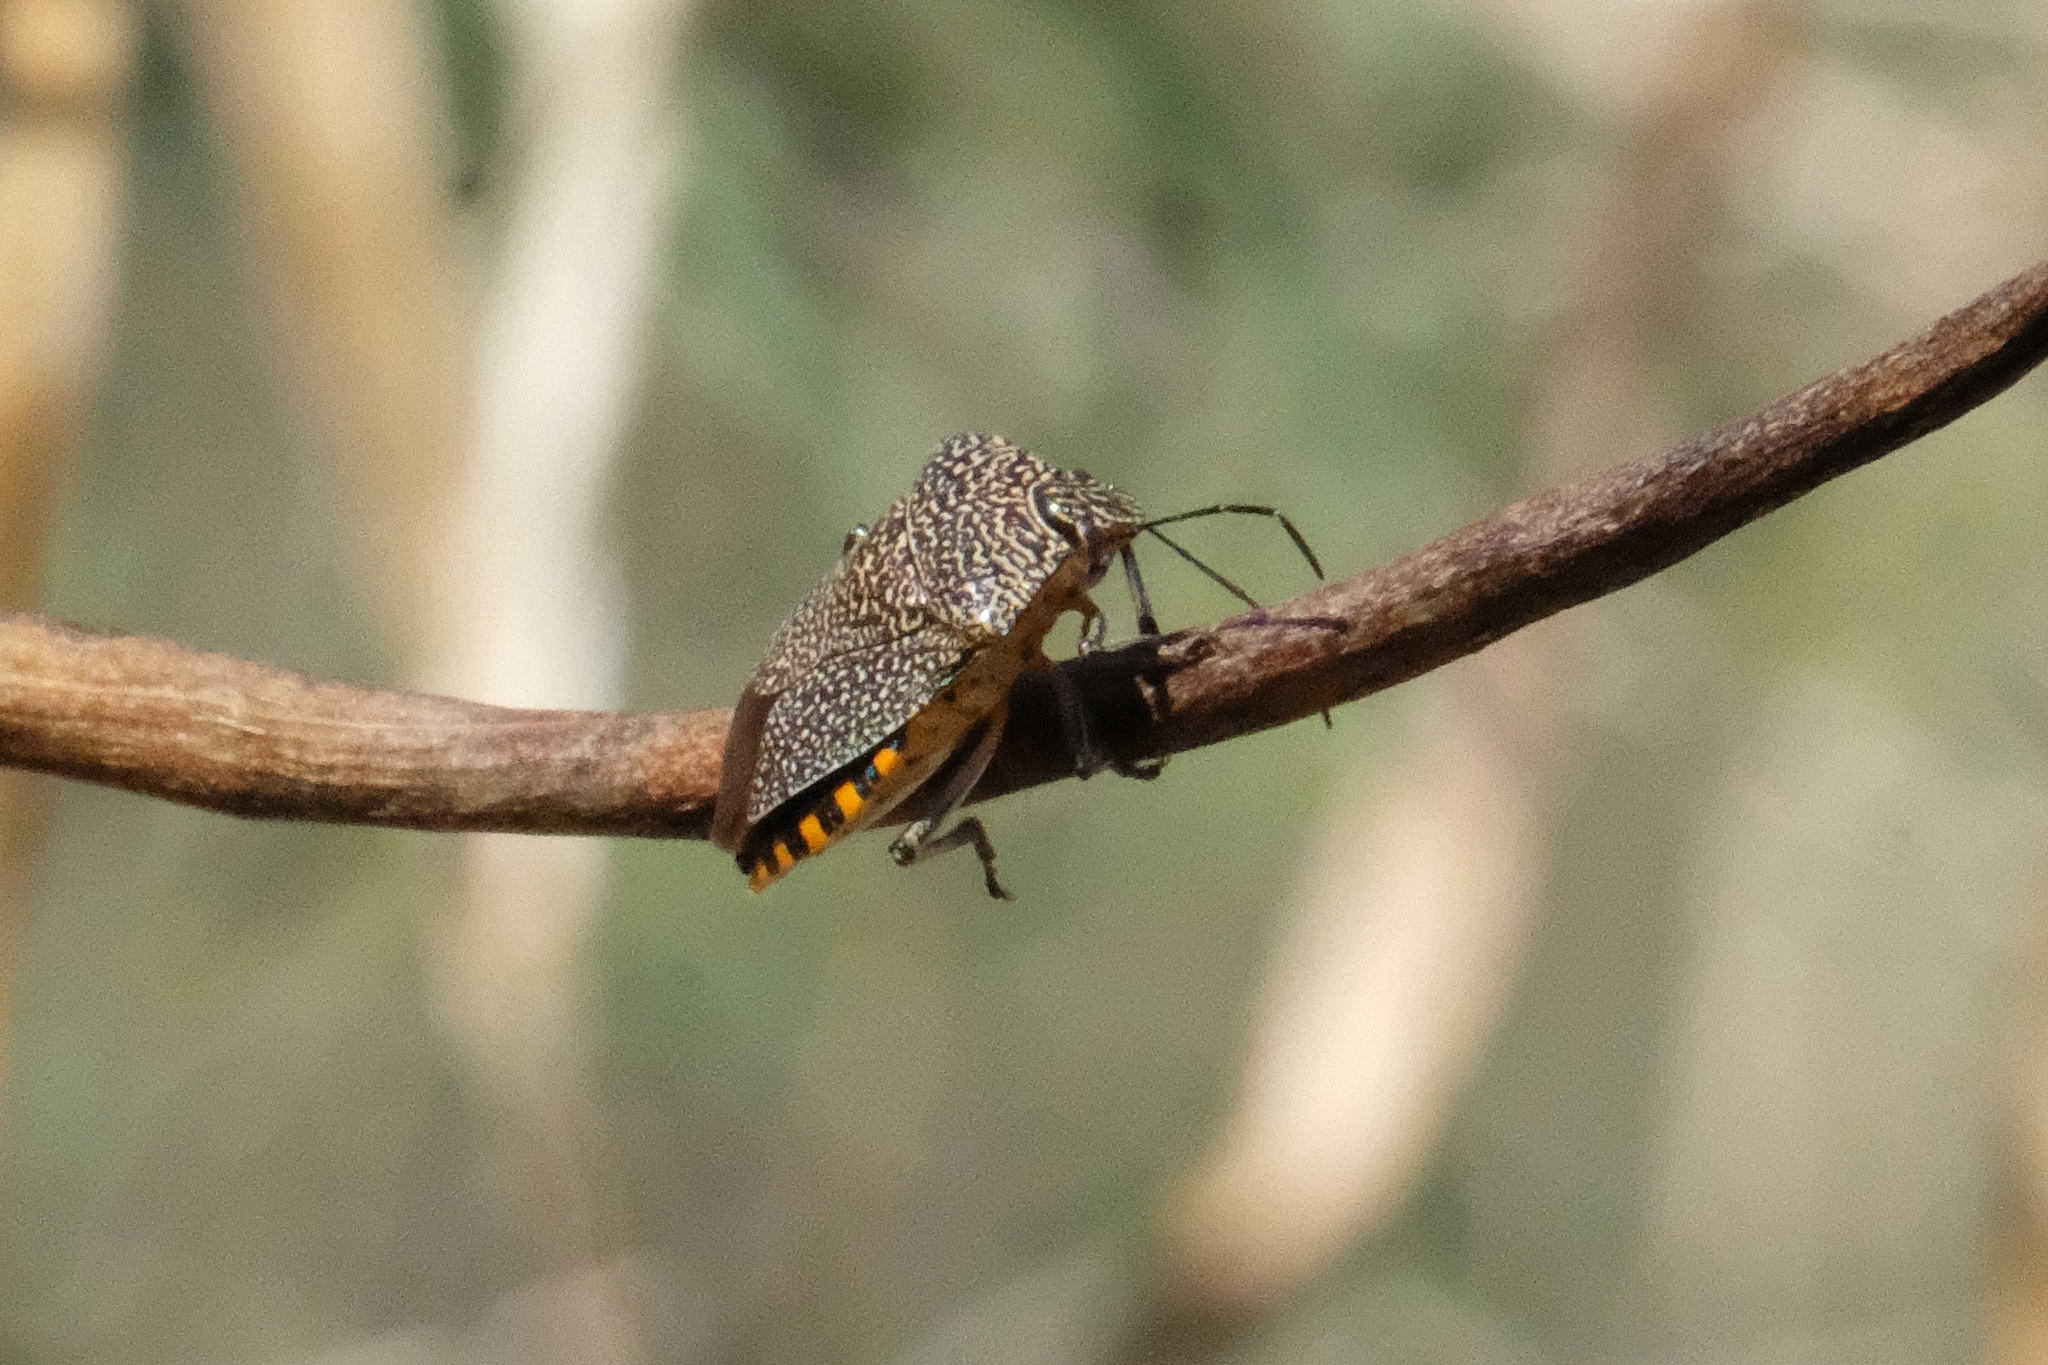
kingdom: Animalia
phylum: Arthropoda
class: Insecta
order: Hemiptera
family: Pentatomidae
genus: Pellaea
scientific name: Pellaea stictica
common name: Stink bug
